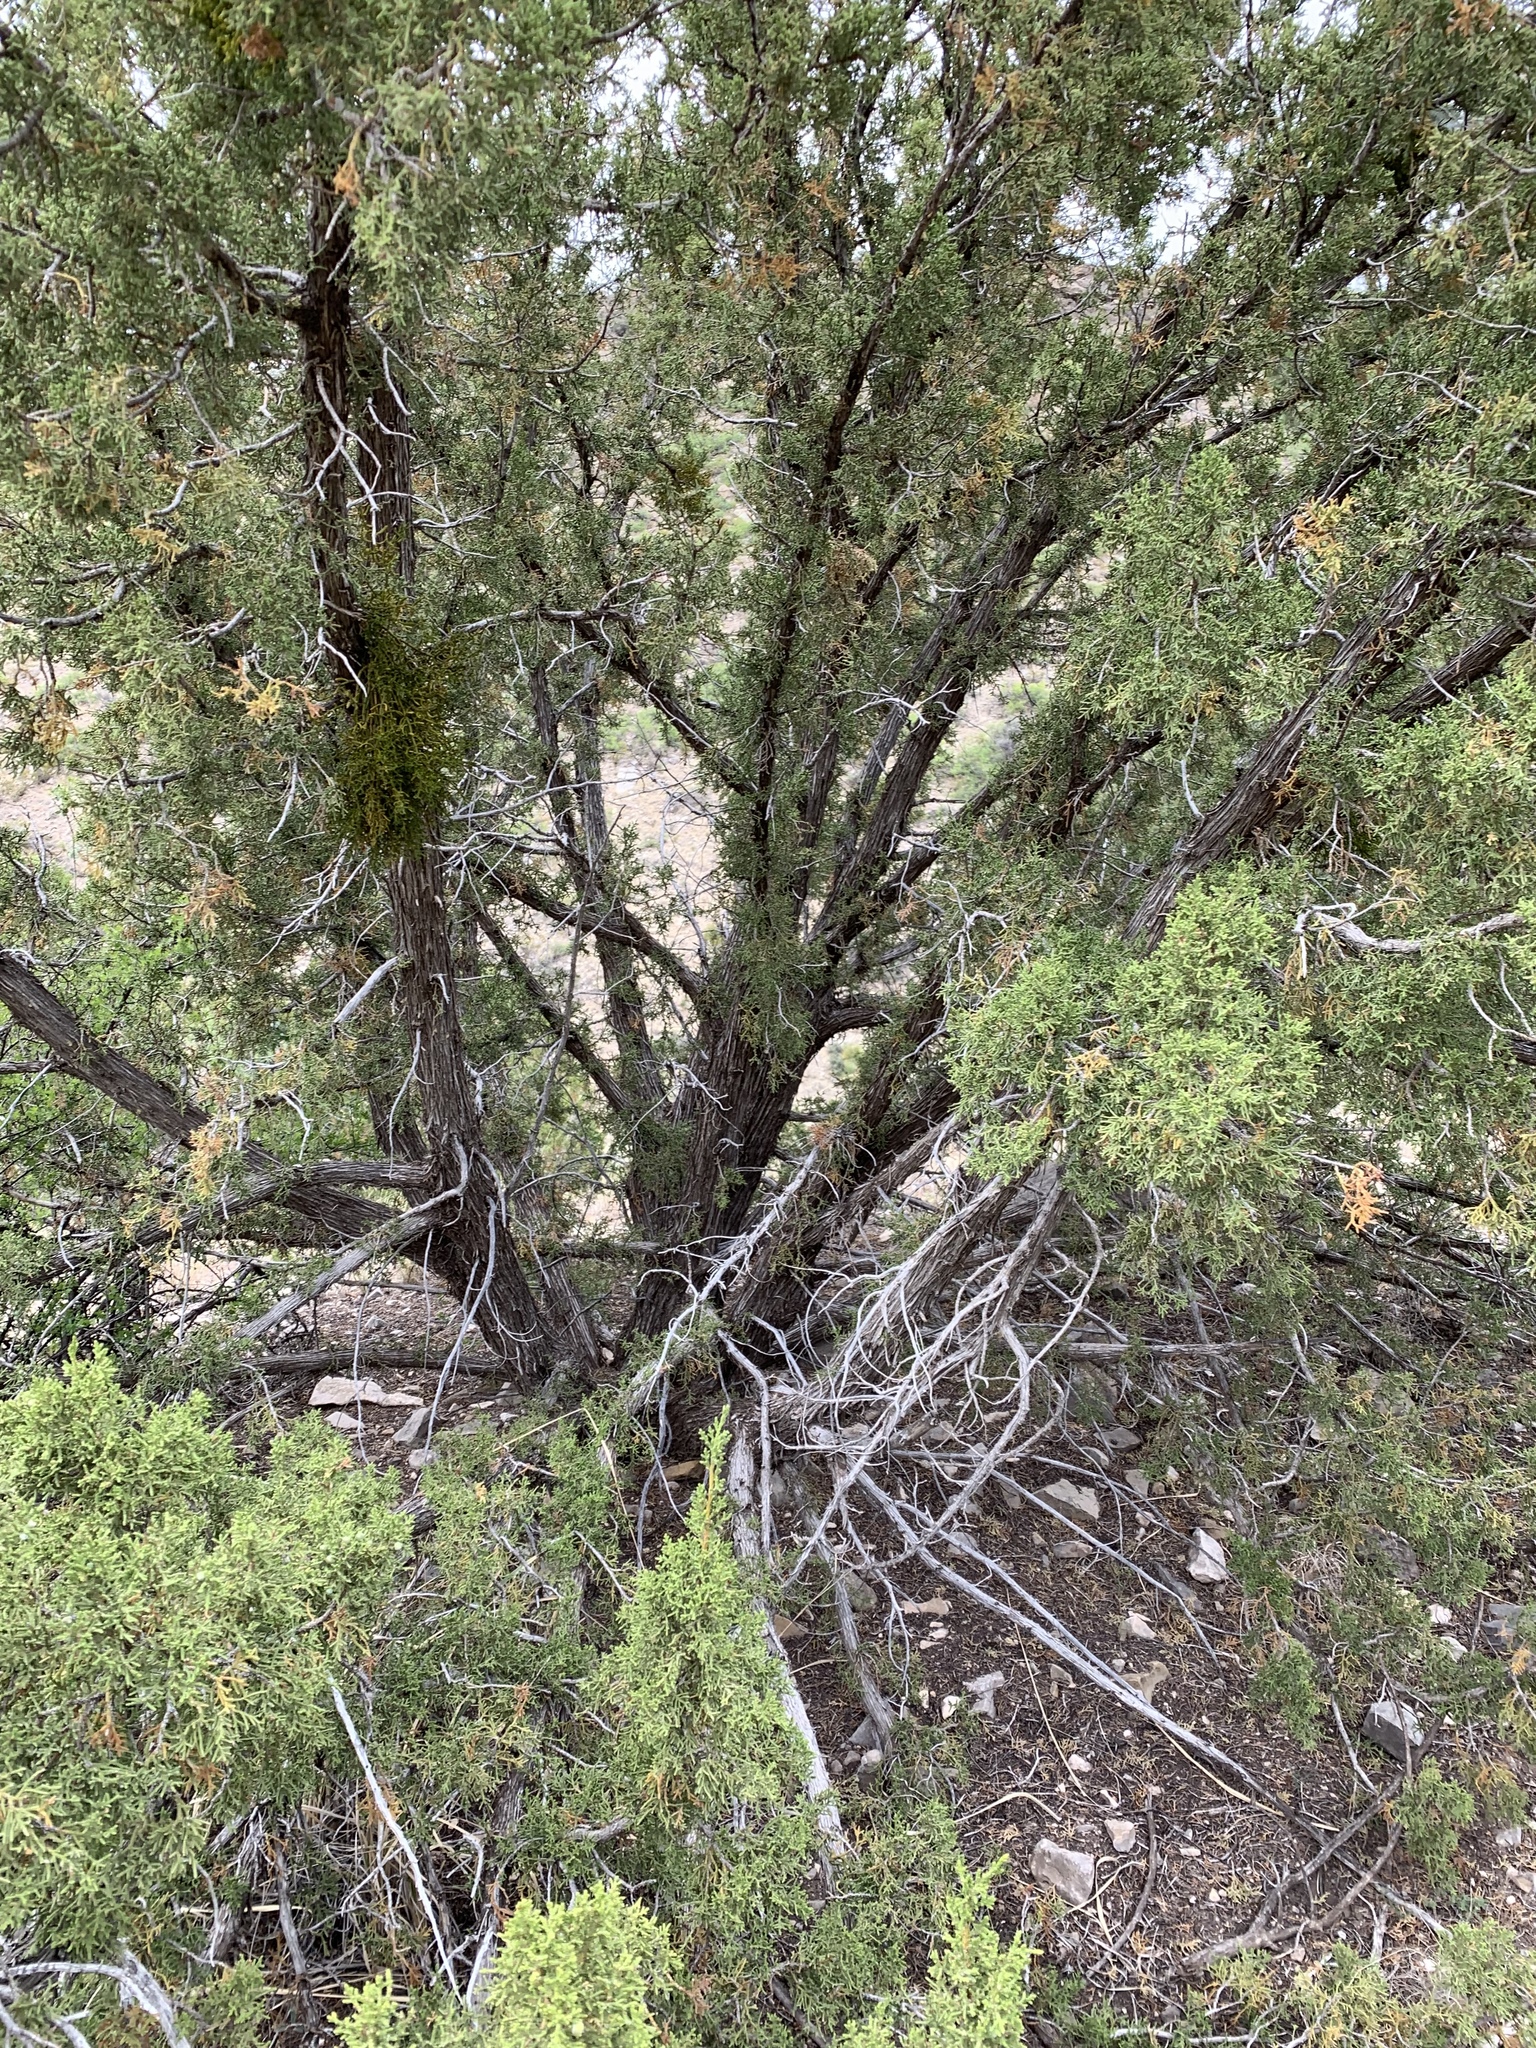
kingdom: Plantae
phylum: Tracheophyta
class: Pinopsida
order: Pinales
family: Cupressaceae
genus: Juniperus
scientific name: Juniperus monosperma
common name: One-seed juniper
